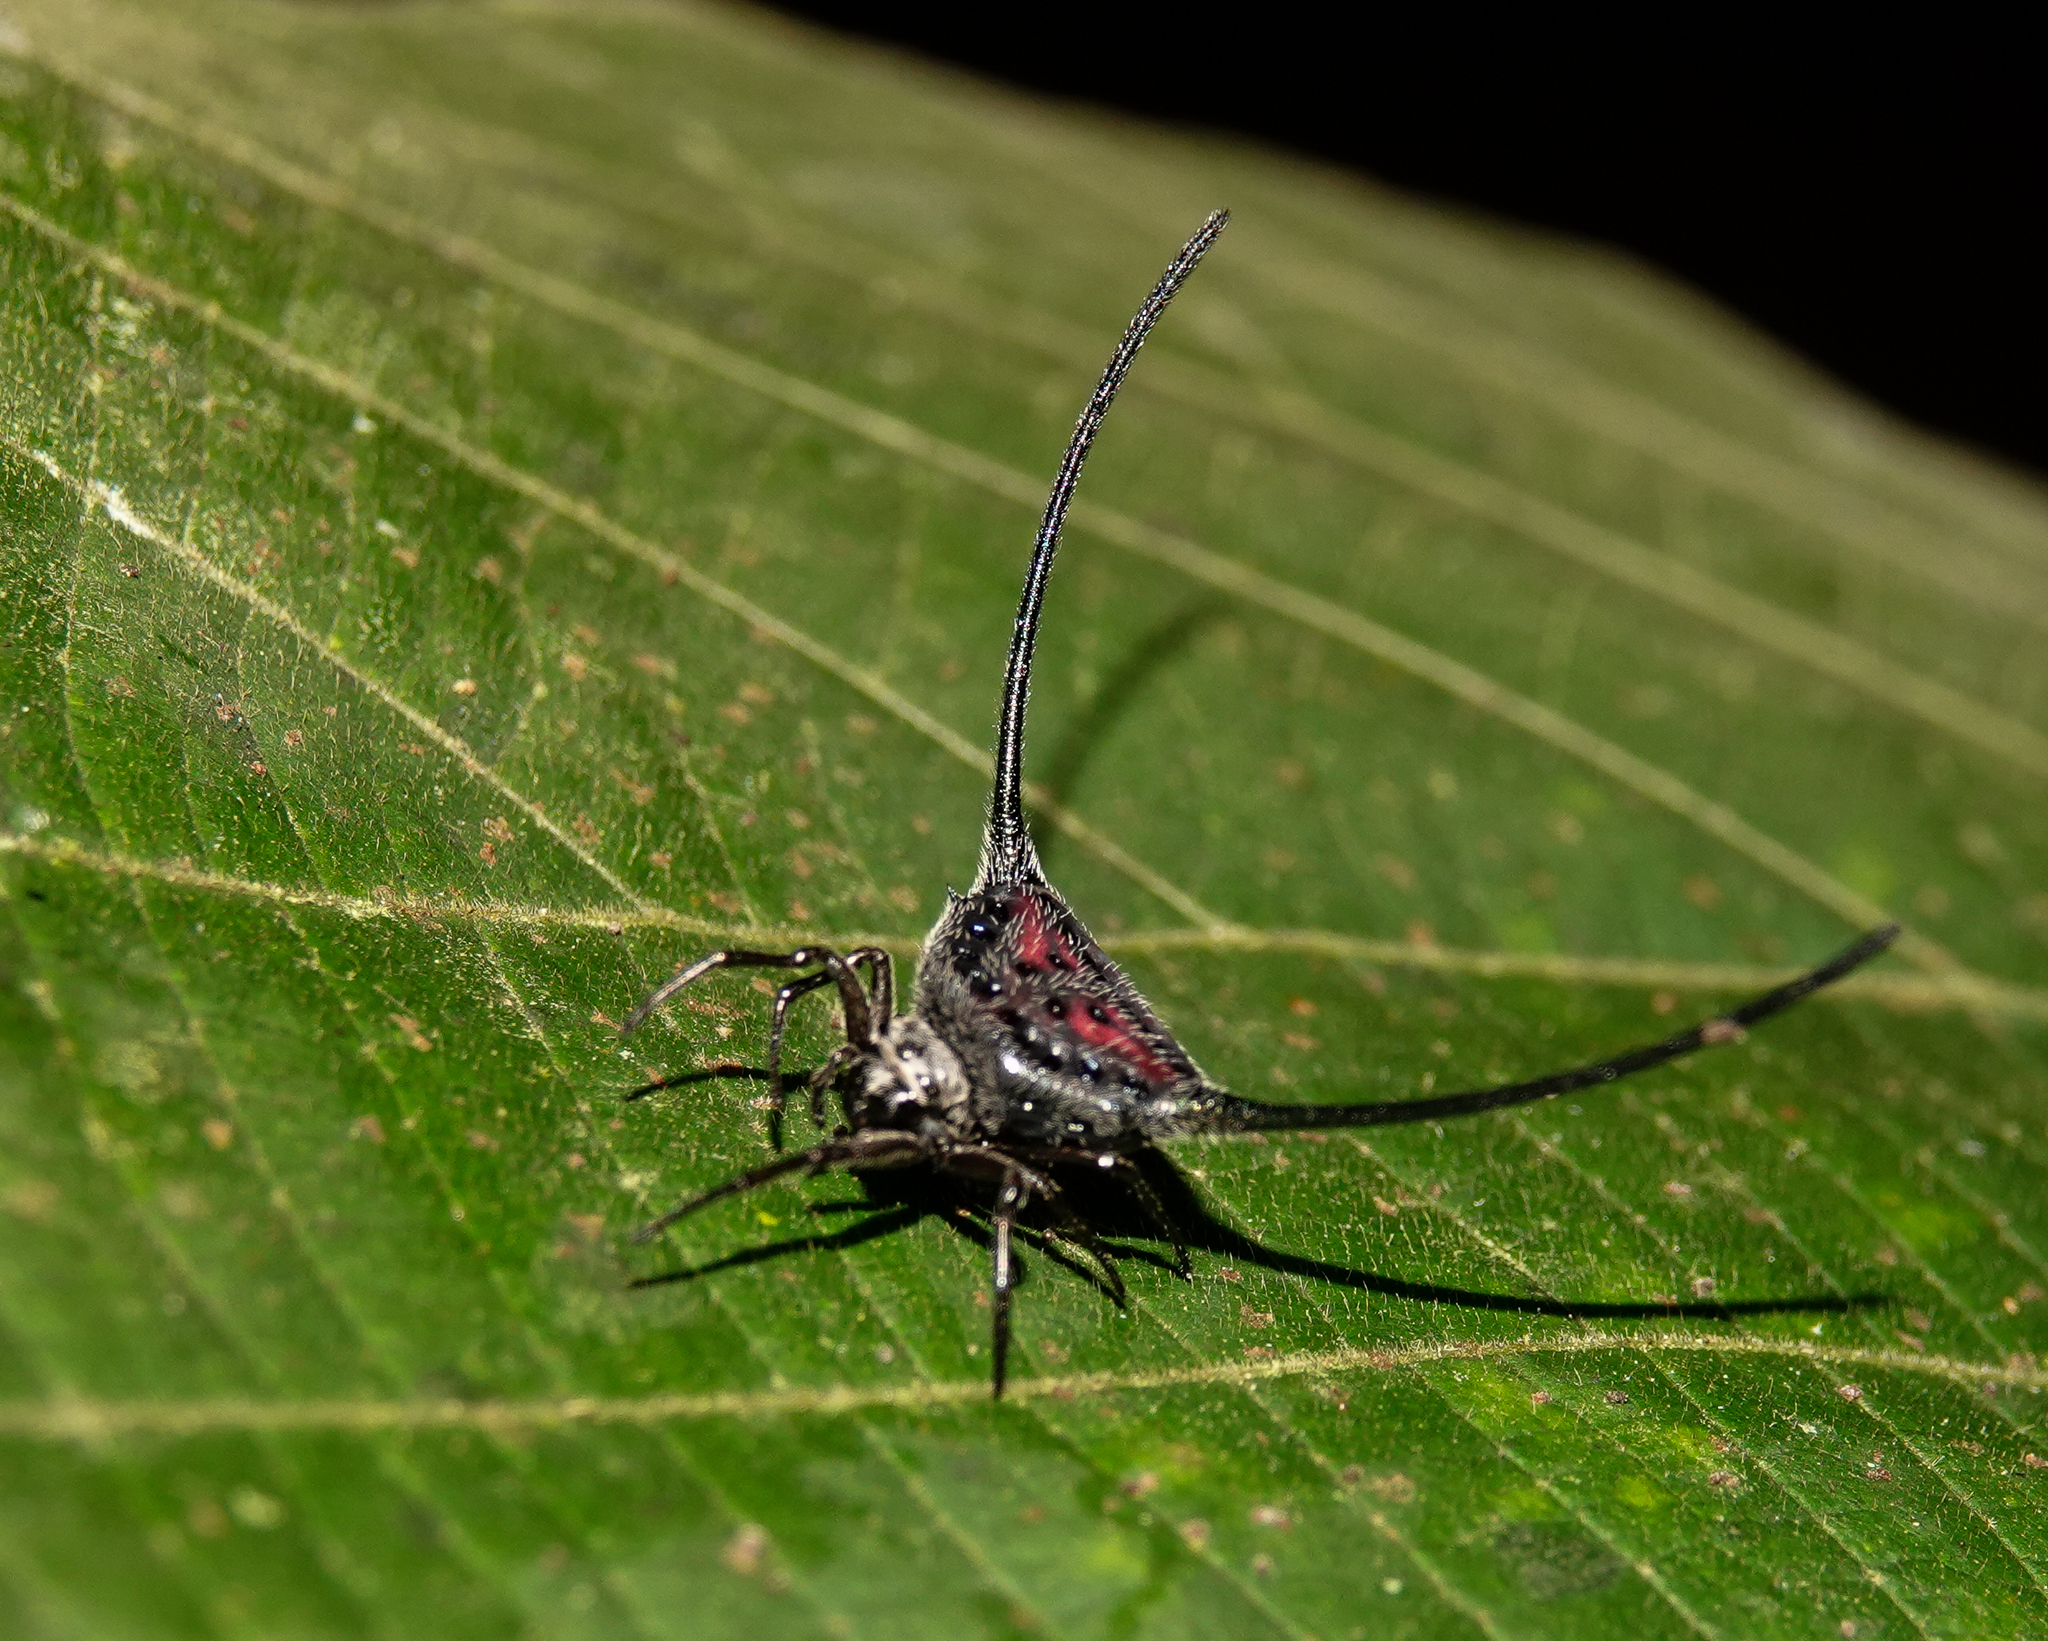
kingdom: Animalia
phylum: Arthropoda
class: Arachnida
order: Araneae
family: Araneidae
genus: Macracantha
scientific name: Macracantha arcuata
